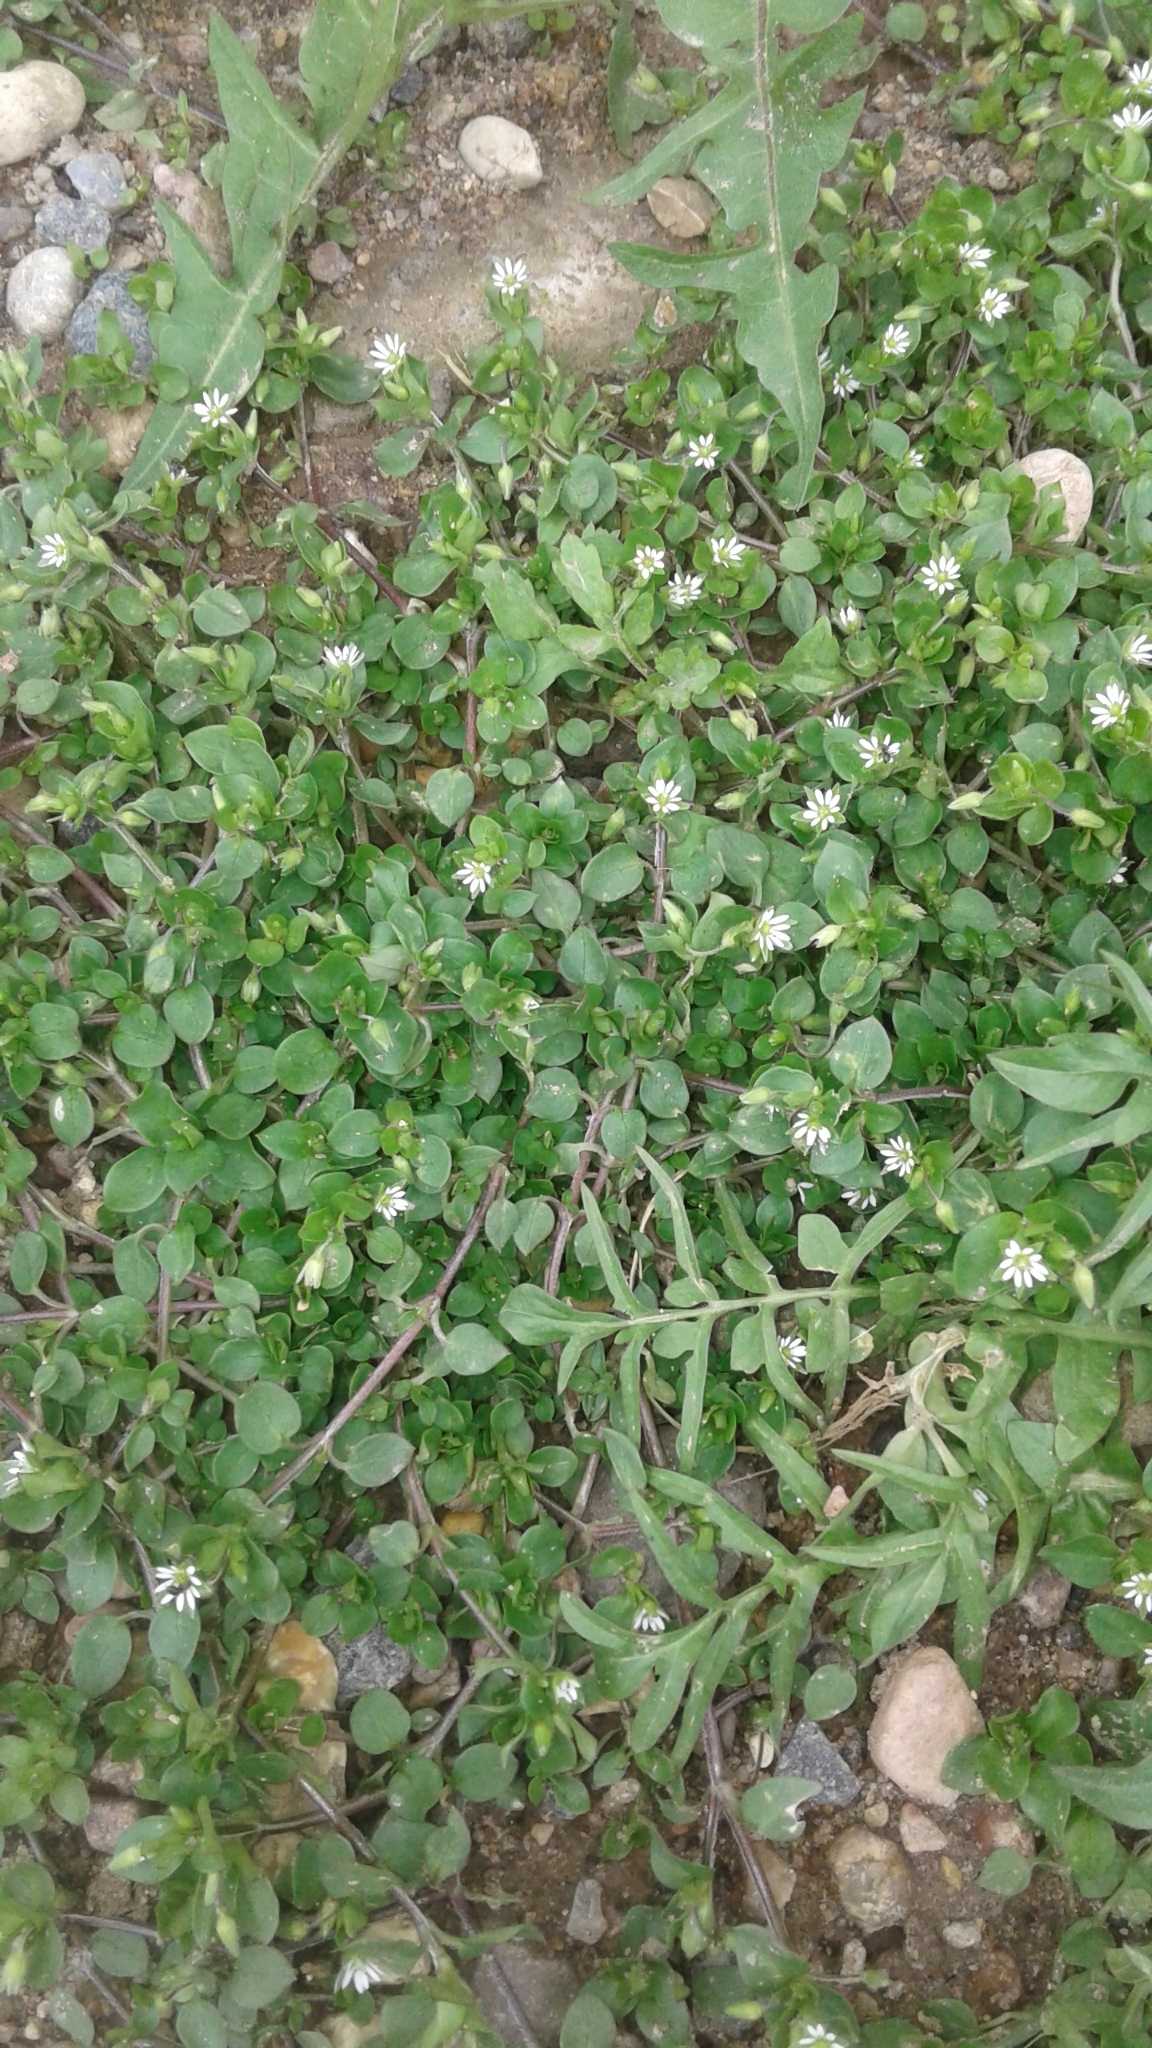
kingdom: Plantae
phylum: Tracheophyta
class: Magnoliopsida
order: Caryophyllales
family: Caryophyllaceae
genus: Stellaria
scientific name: Stellaria media
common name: Common chickweed
